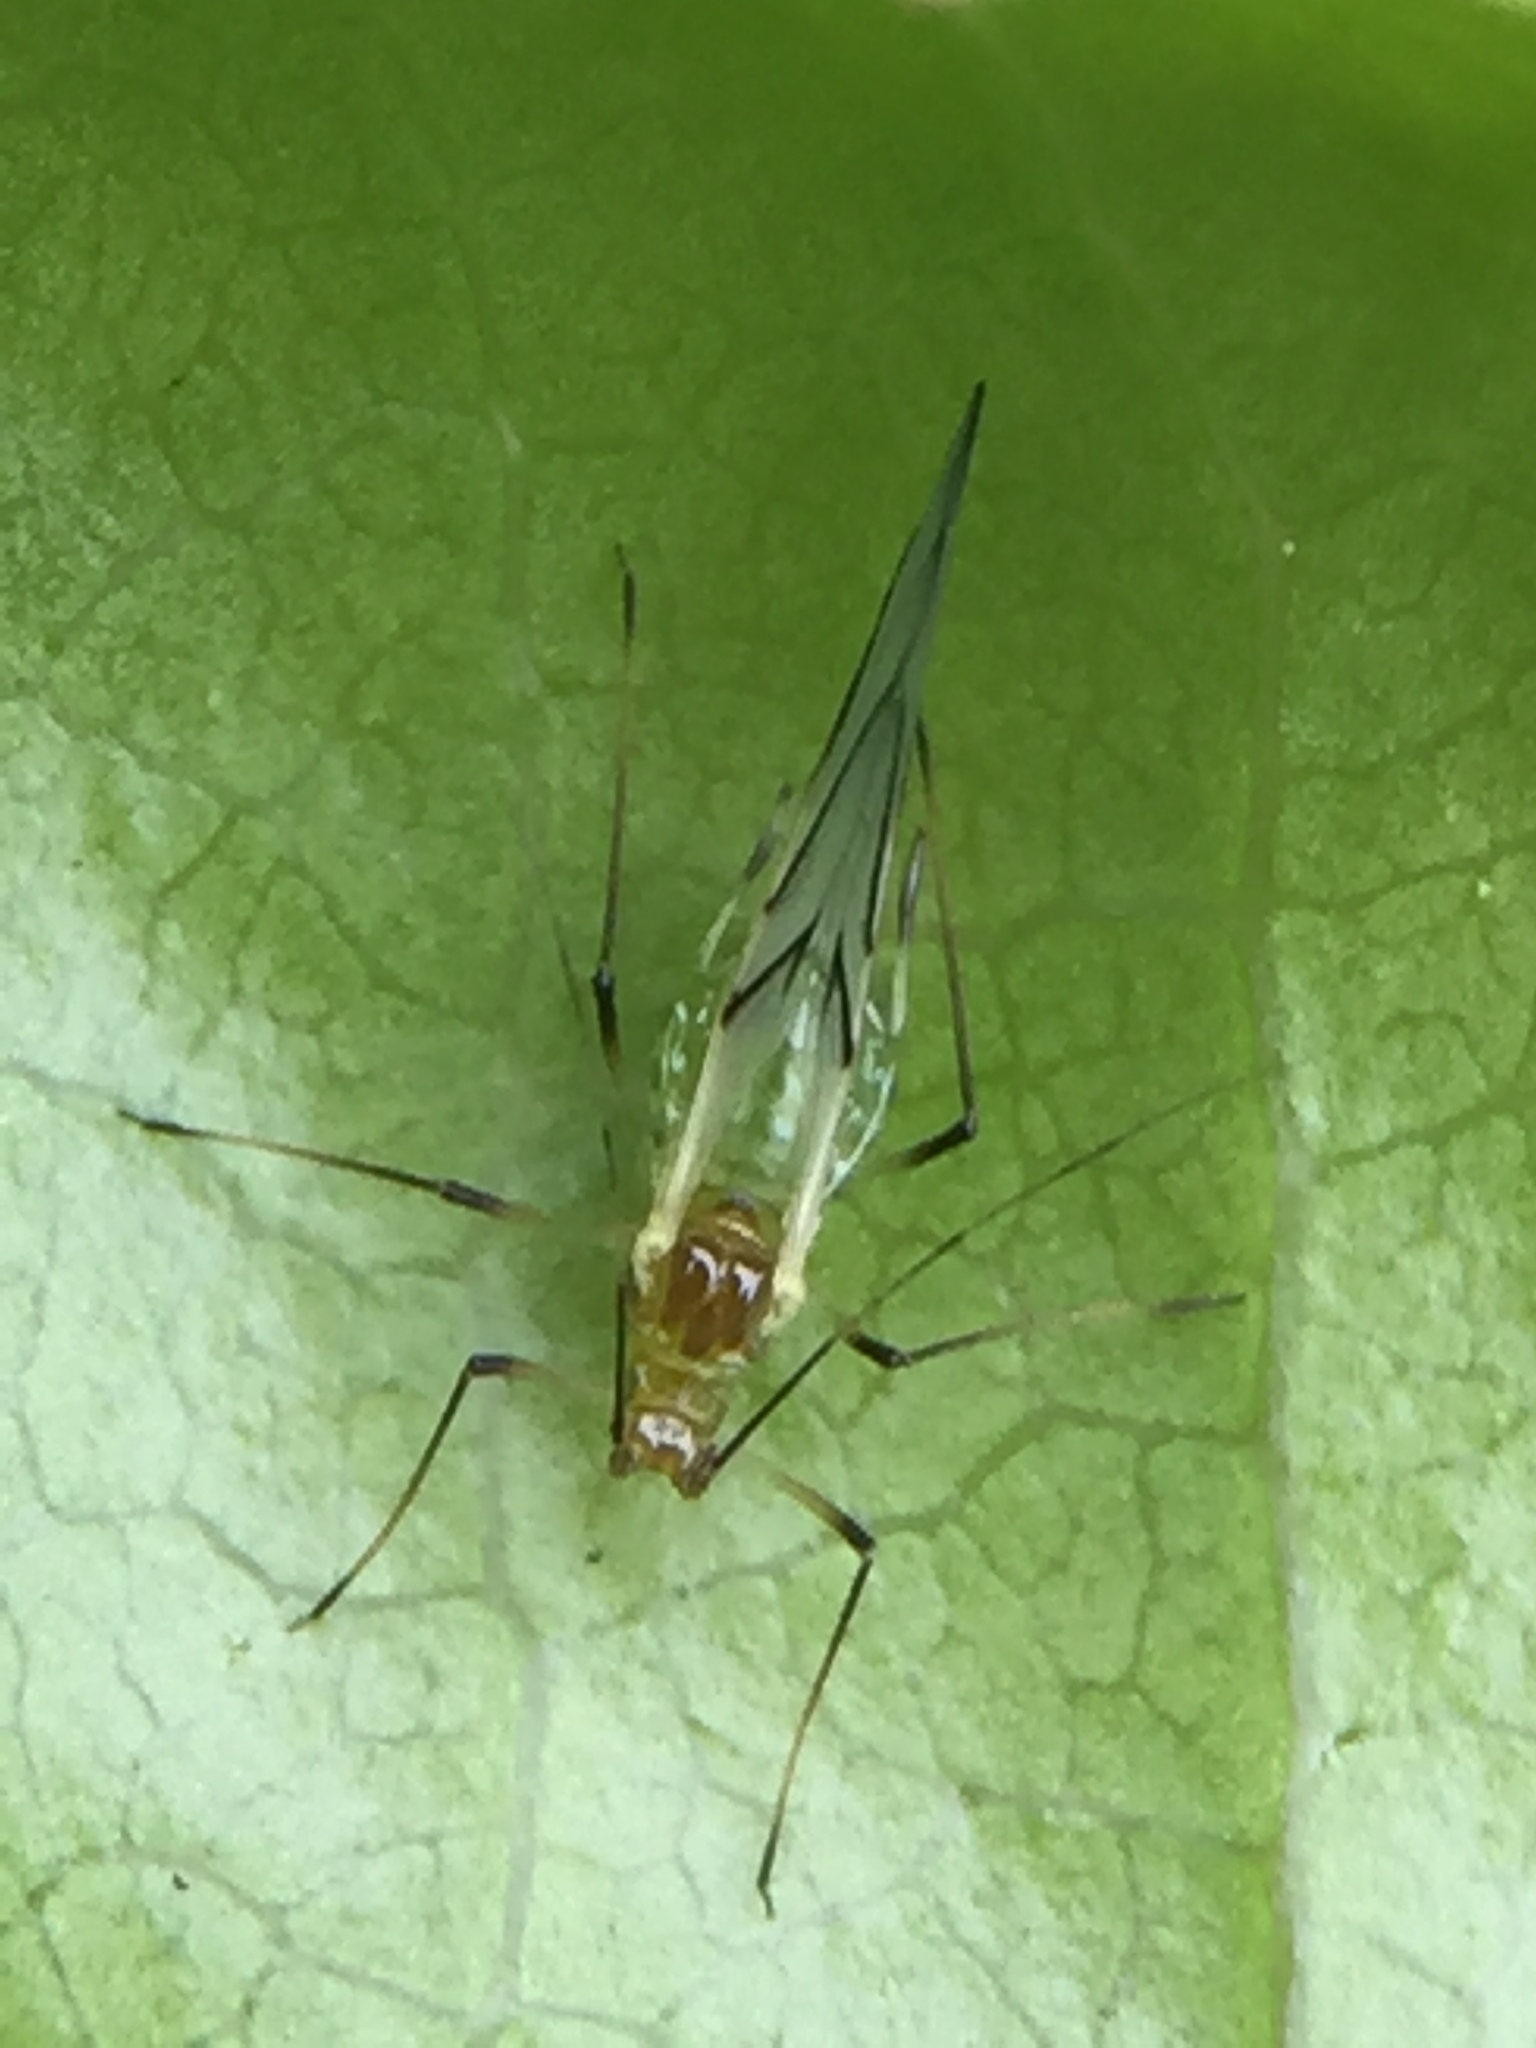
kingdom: Animalia
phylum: Arthropoda
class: Insecta
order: Hemiptera
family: Aphididae
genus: Wahlgreniella
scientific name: Wahlgreniella nervata
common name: Pale green aphid
